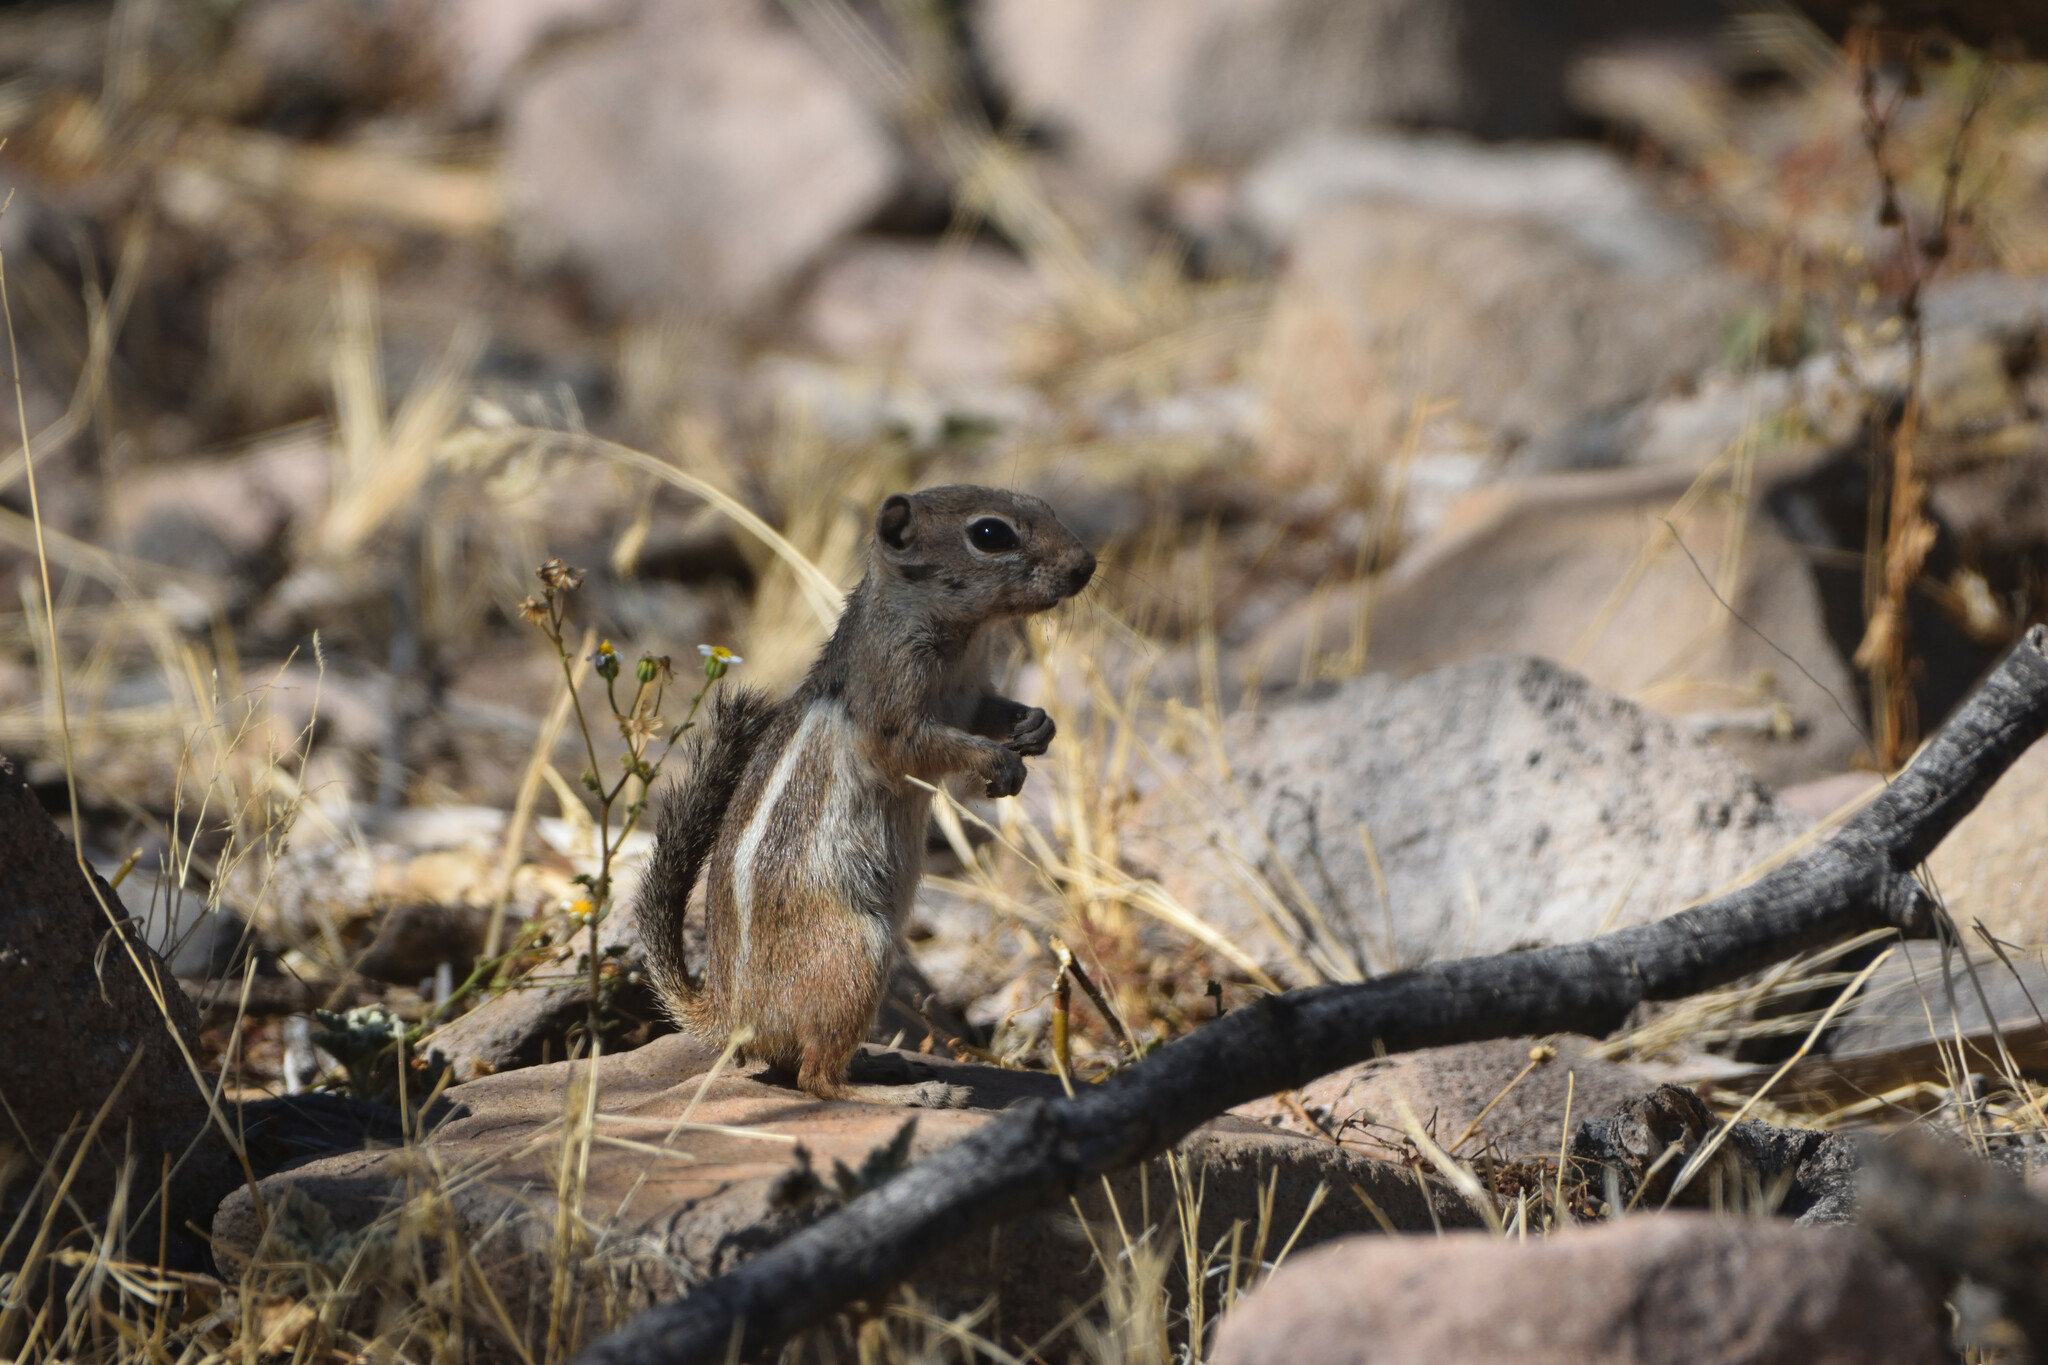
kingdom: Animalia
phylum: Chordata
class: Mammalia
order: Rodentia
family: Sciuridae
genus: Ammospermophilus
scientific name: Ammospermophilus leucurus
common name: White-tailed antelope squirrel
